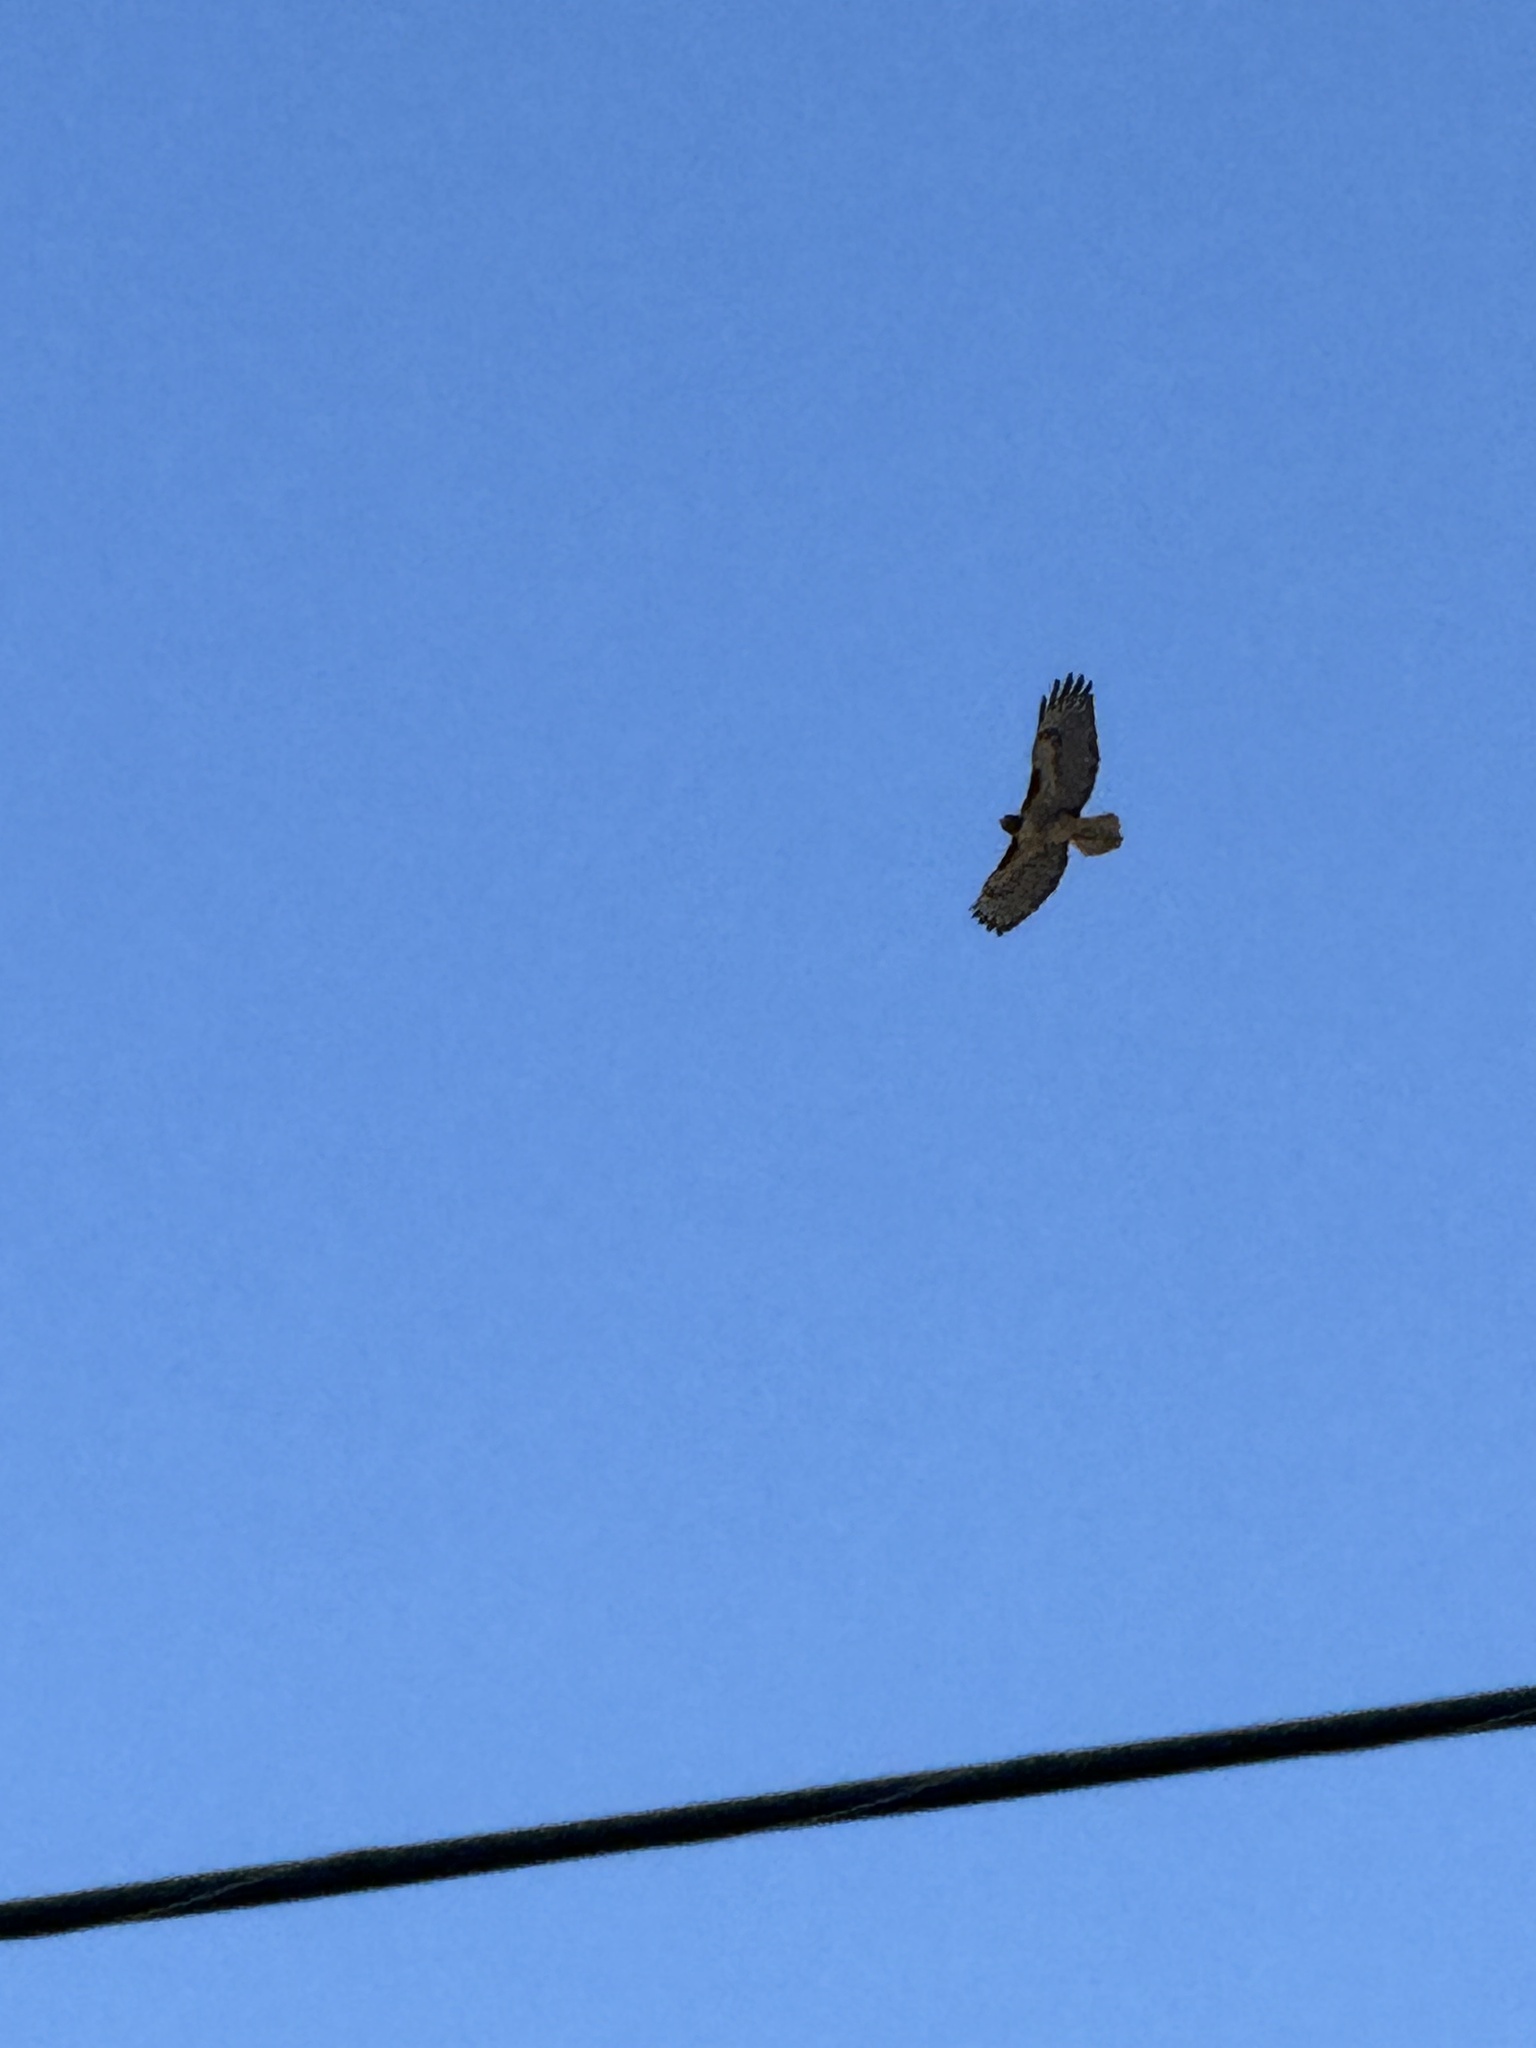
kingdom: Animalia
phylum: Chordata
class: Aves
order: Accipitriformes
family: Accipitridae
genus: Buteo
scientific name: Buteo jamaicensis
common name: Red-tailed hawk
